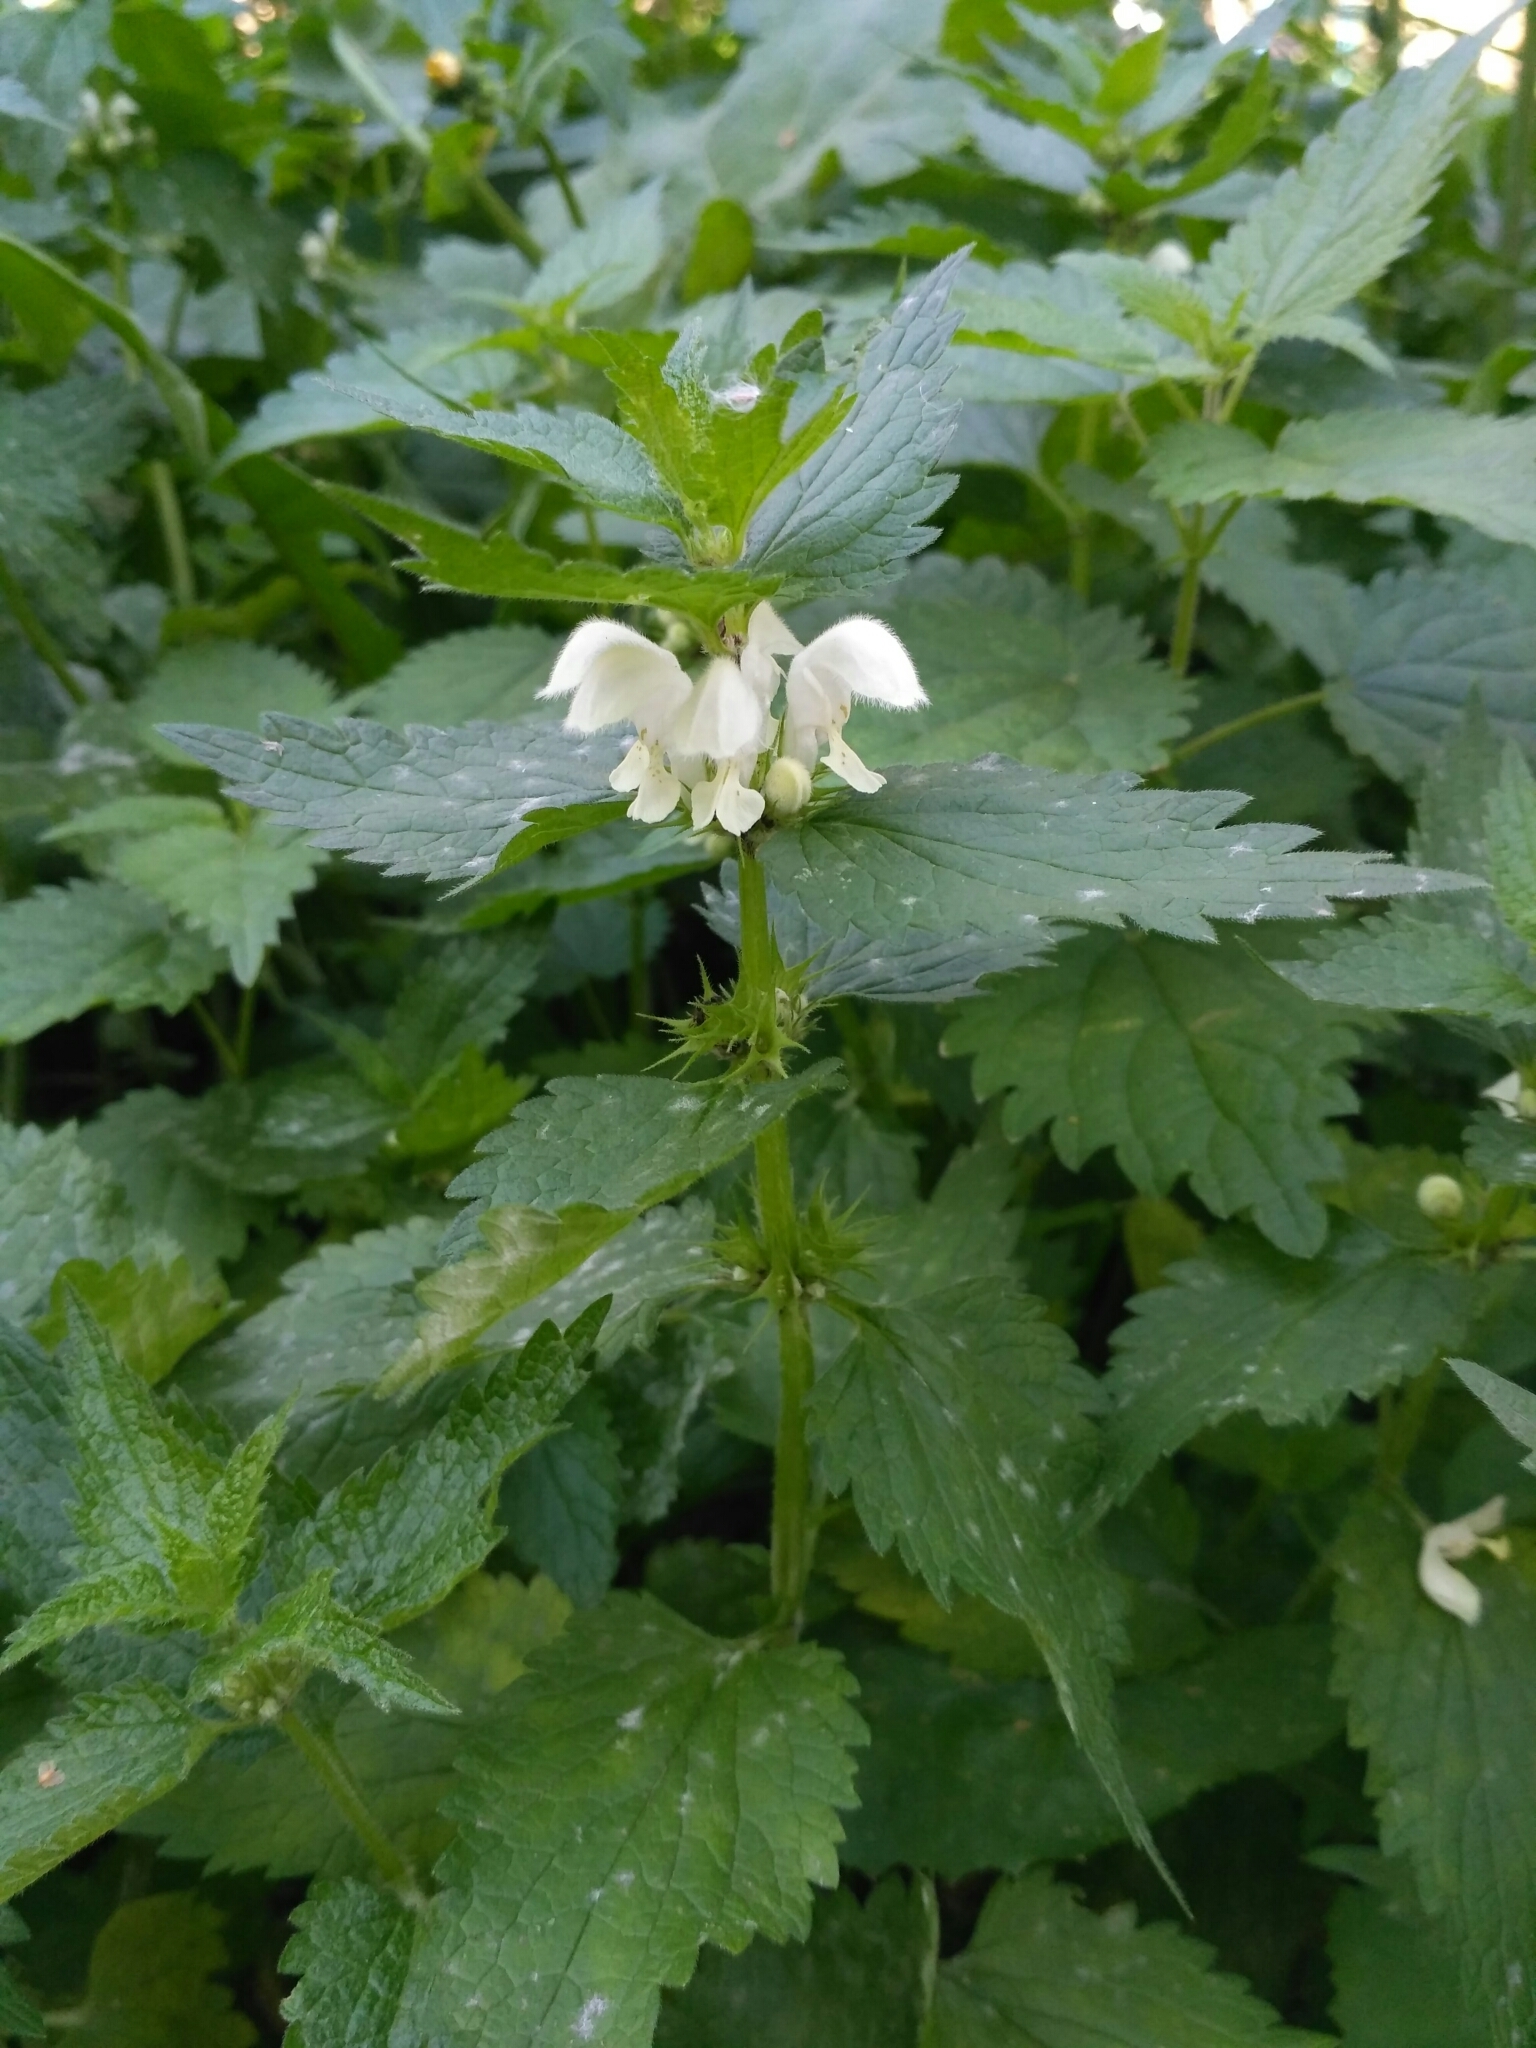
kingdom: Plantae
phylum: Tracheophyta
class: Magnoliopsida
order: Lamiales
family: Lamiaceae
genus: Lamium
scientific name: Lamium album
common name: White dead-nettle
